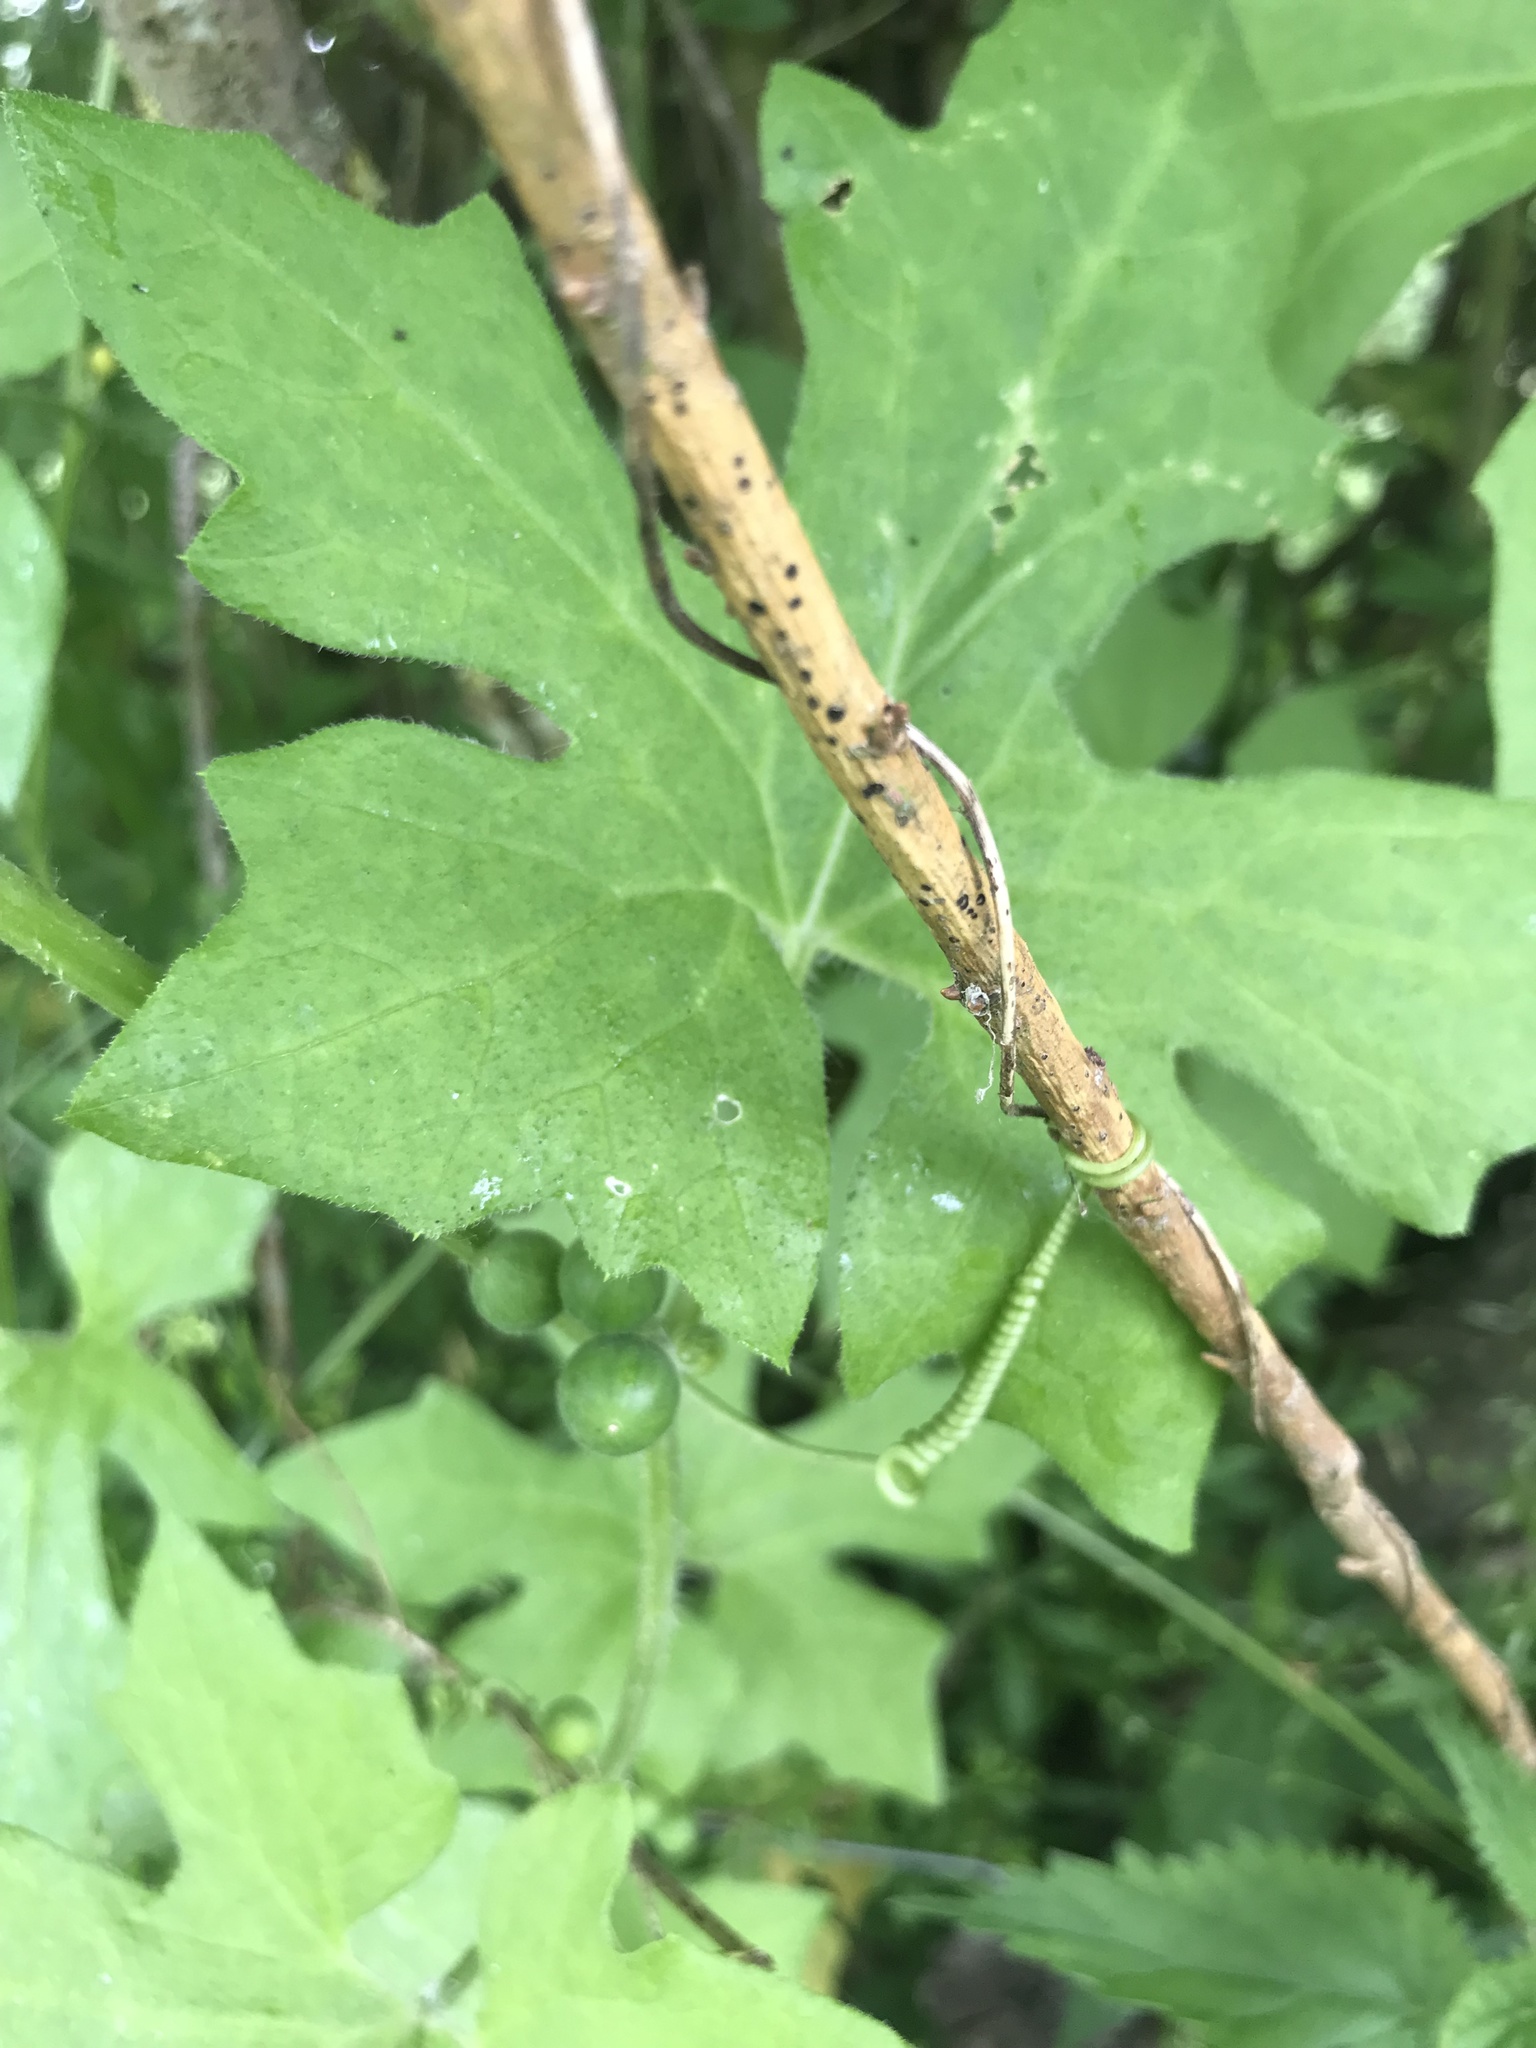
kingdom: Plantae
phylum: Tracheophyta
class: Magnoliopsida
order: Cucurbitales
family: Cucurbitaceae
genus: Bryonia
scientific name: Bryonia cretica
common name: Cretan bryony
